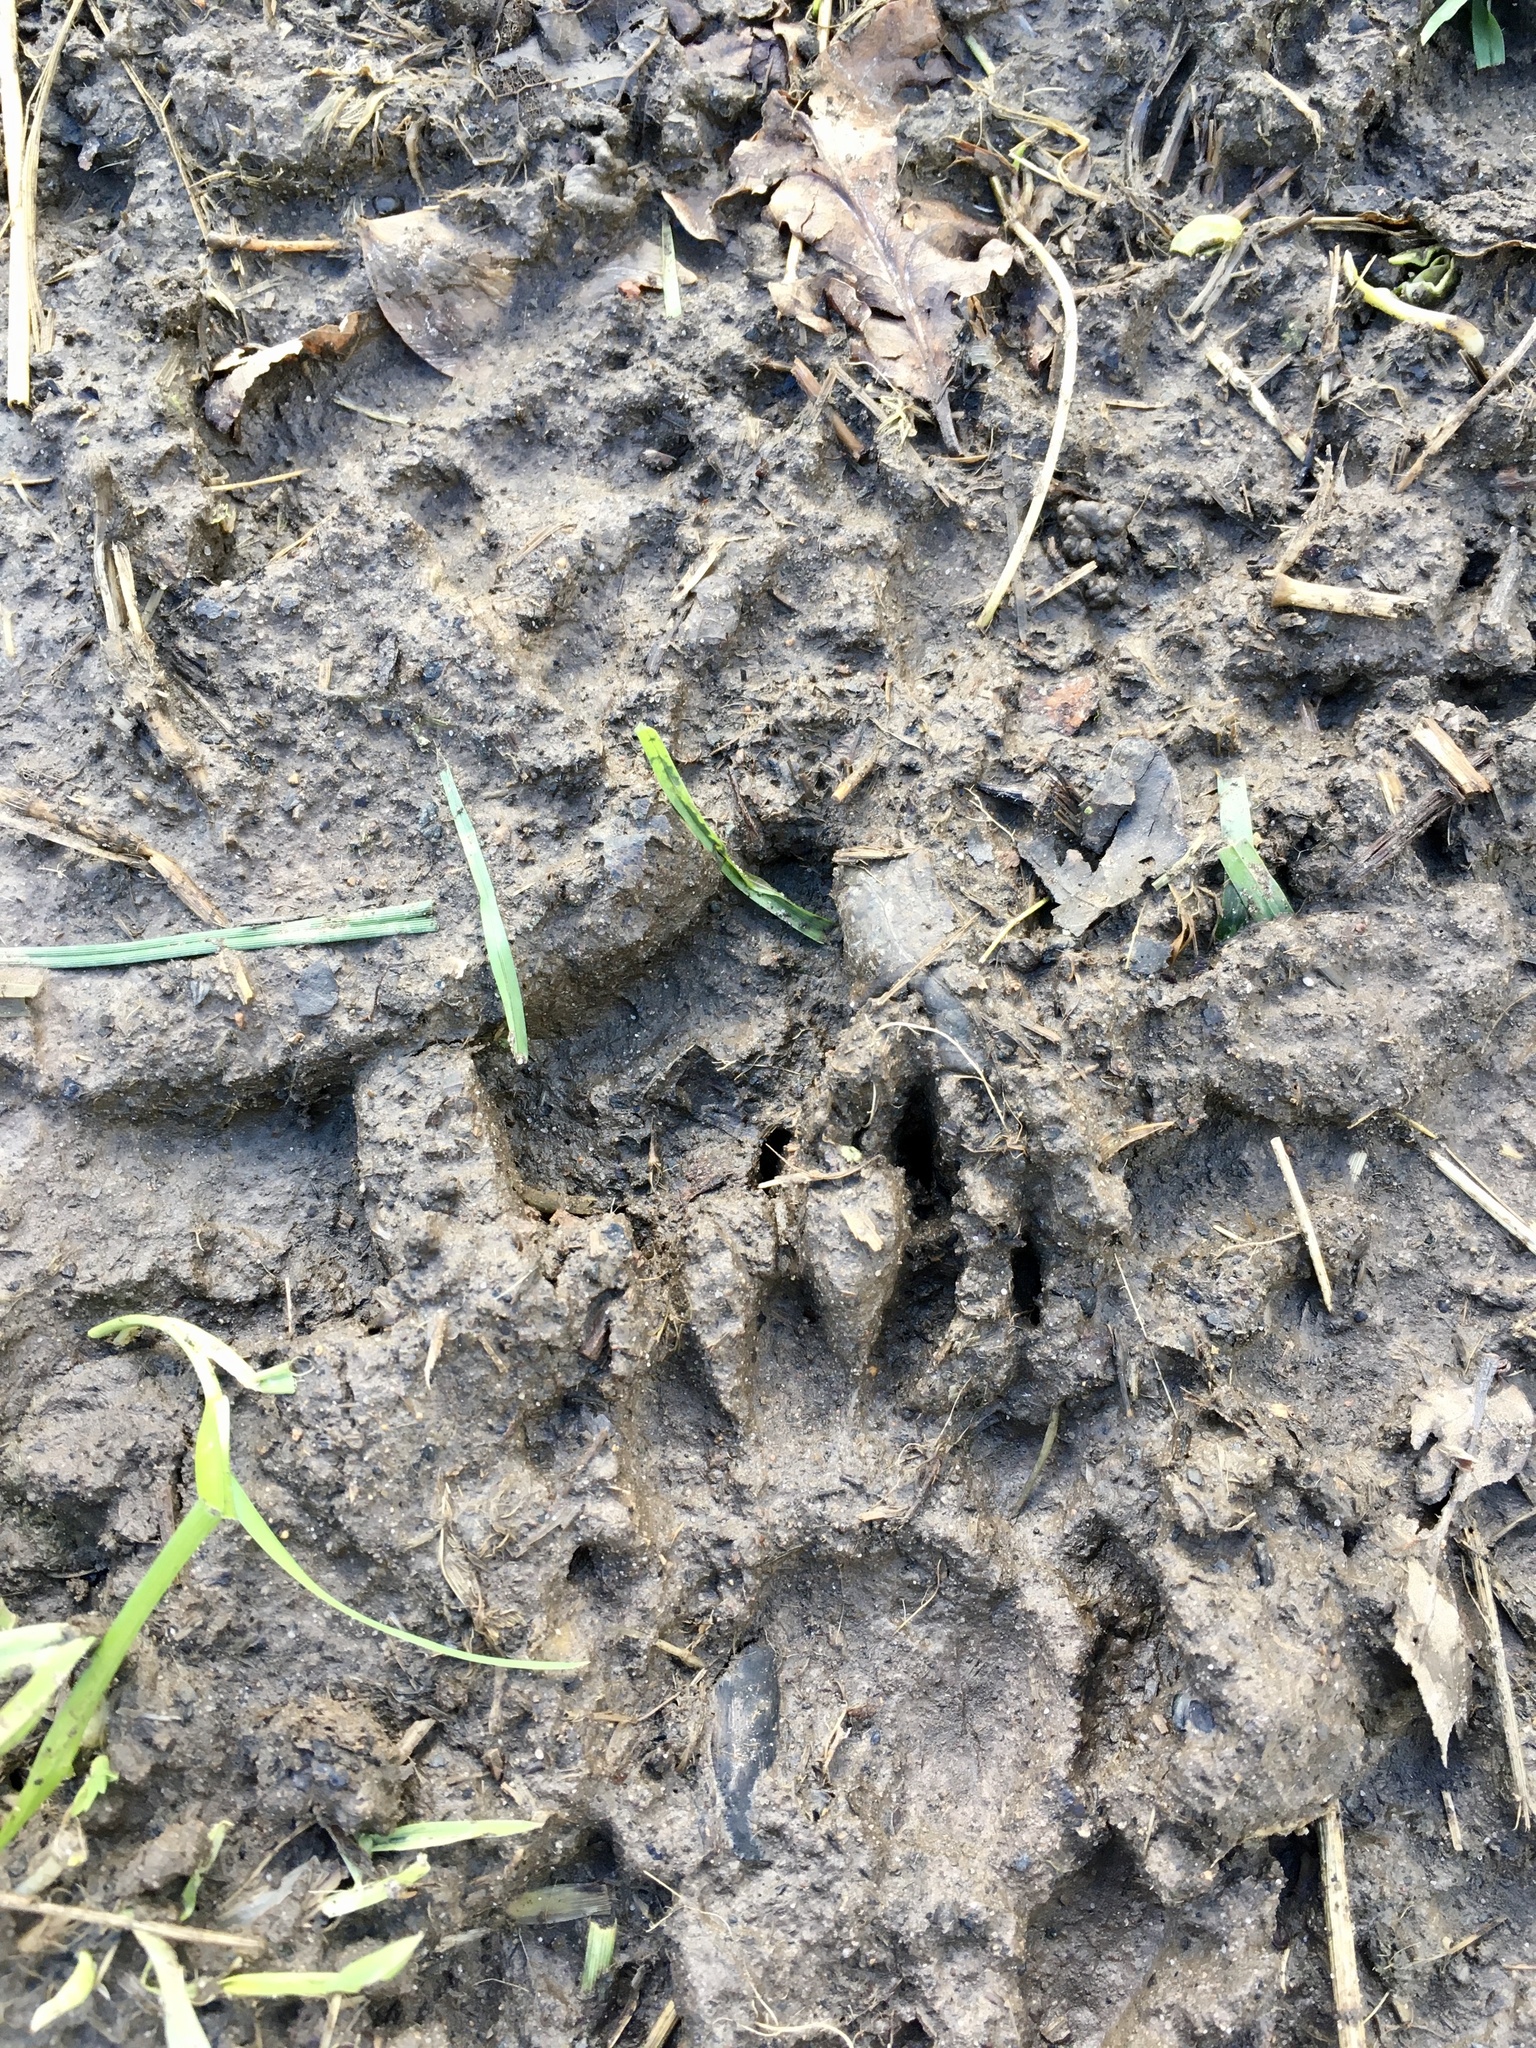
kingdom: Animalia
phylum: Chordata
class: Mammalia
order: Carnivora
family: Mustelidae
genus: Meles
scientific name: Meles meles
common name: Eurasian badger
